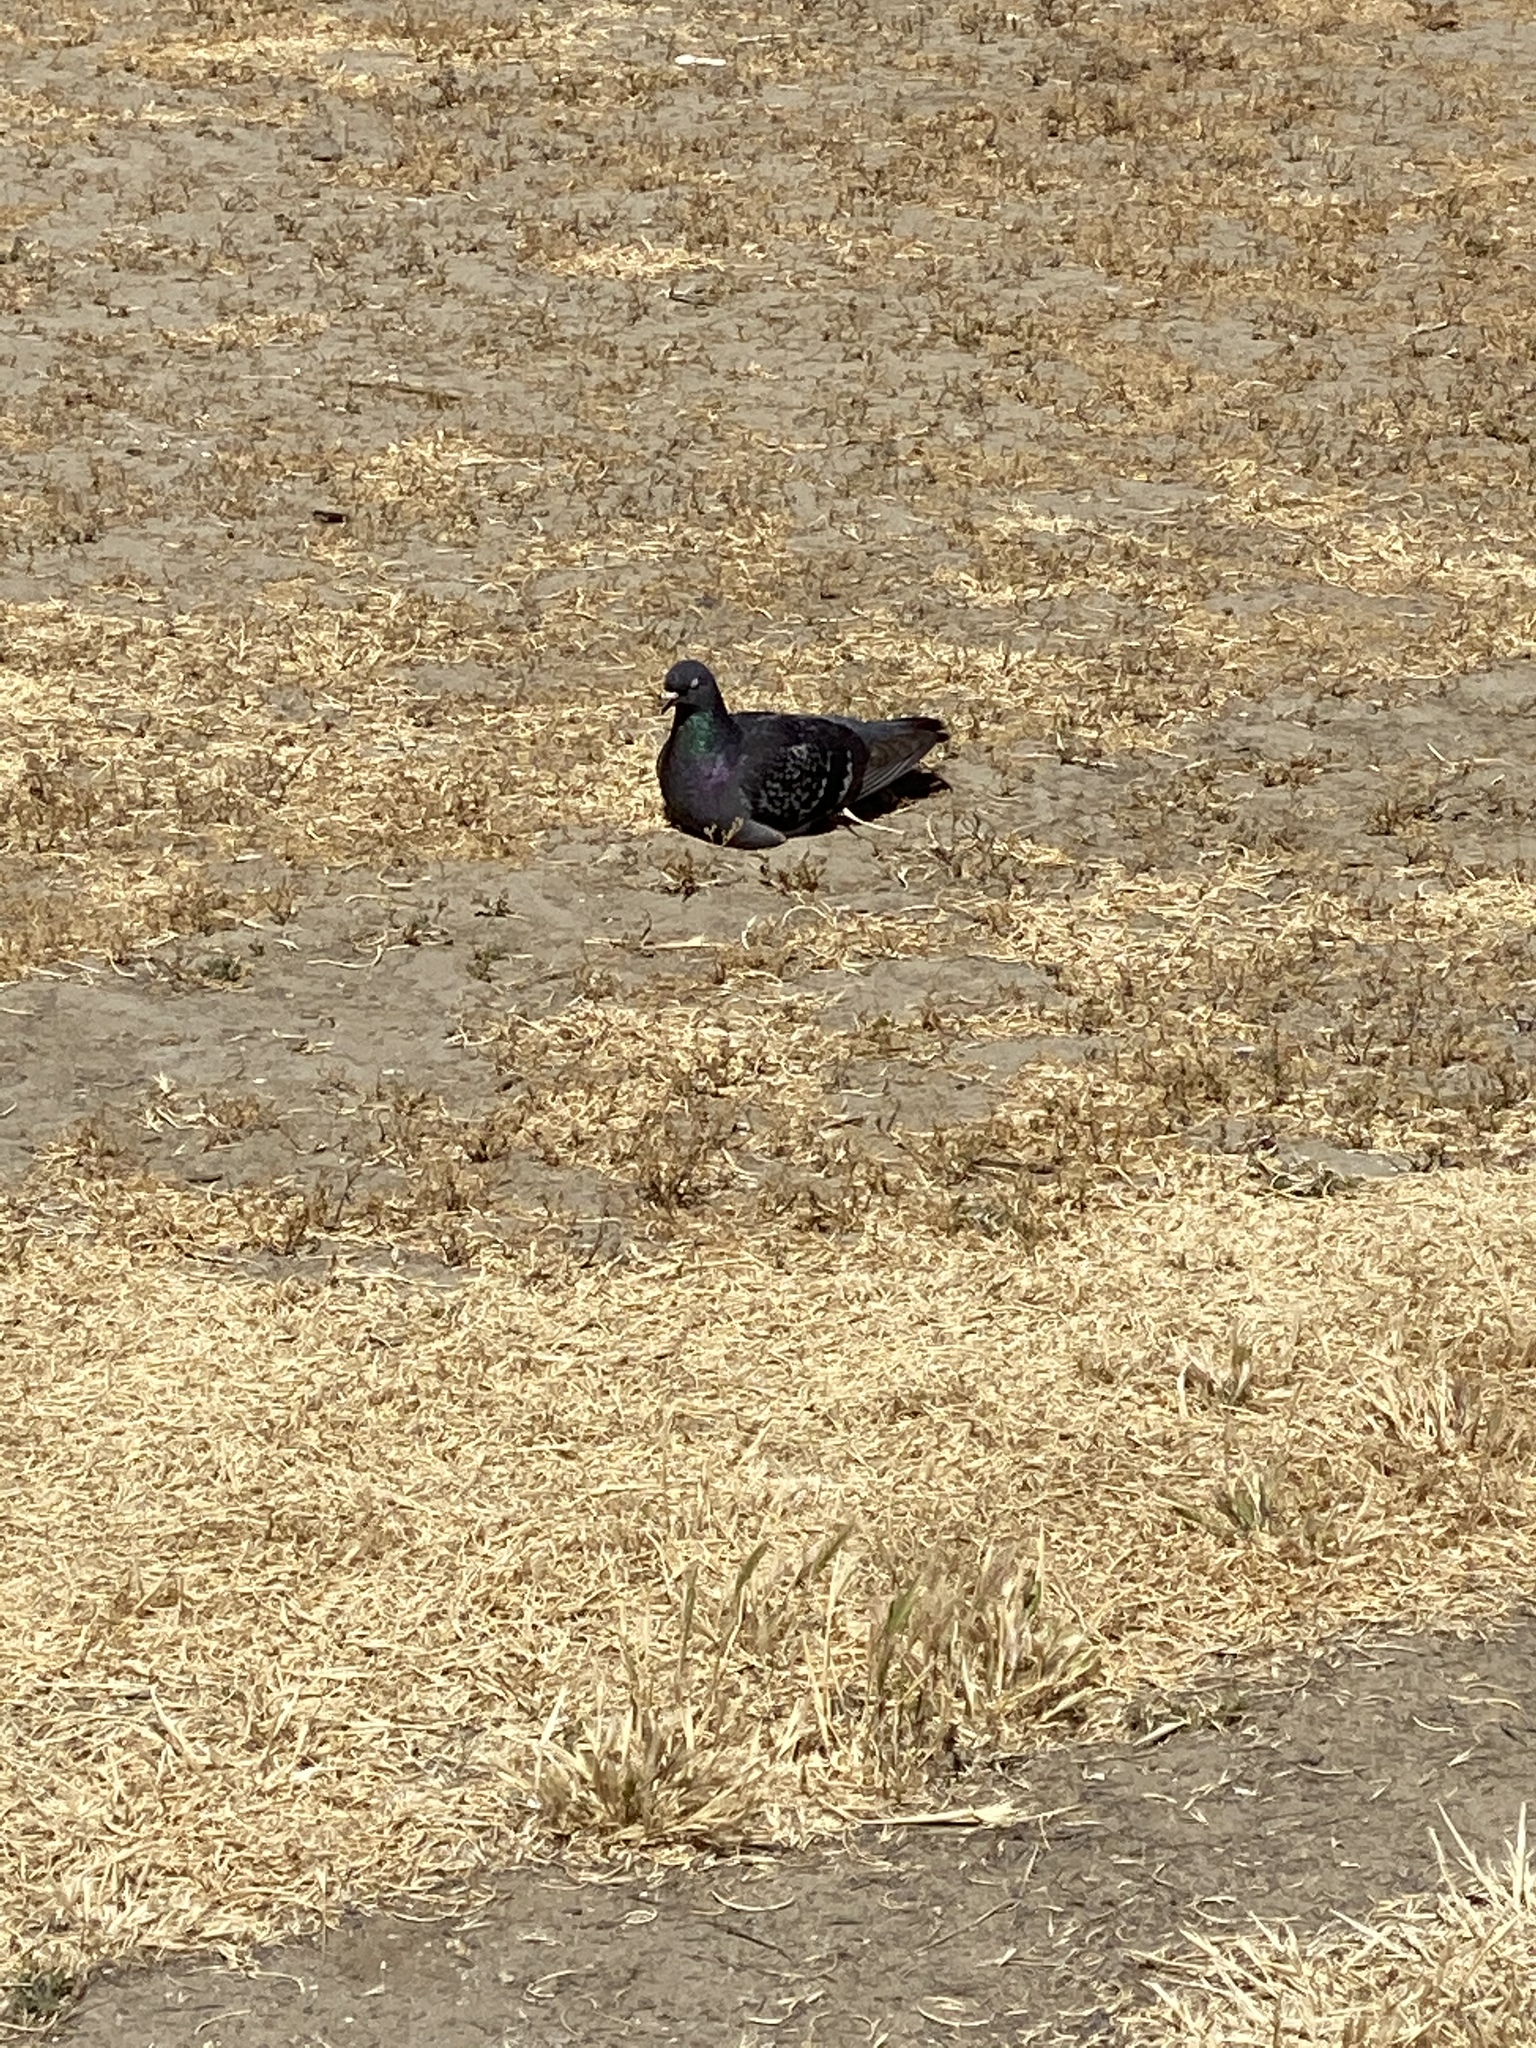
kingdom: Animalia
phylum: Chordata
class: Aves
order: Columbiformes
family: Columbidae
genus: Columba
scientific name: Columba livia
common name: Rock pigeon
